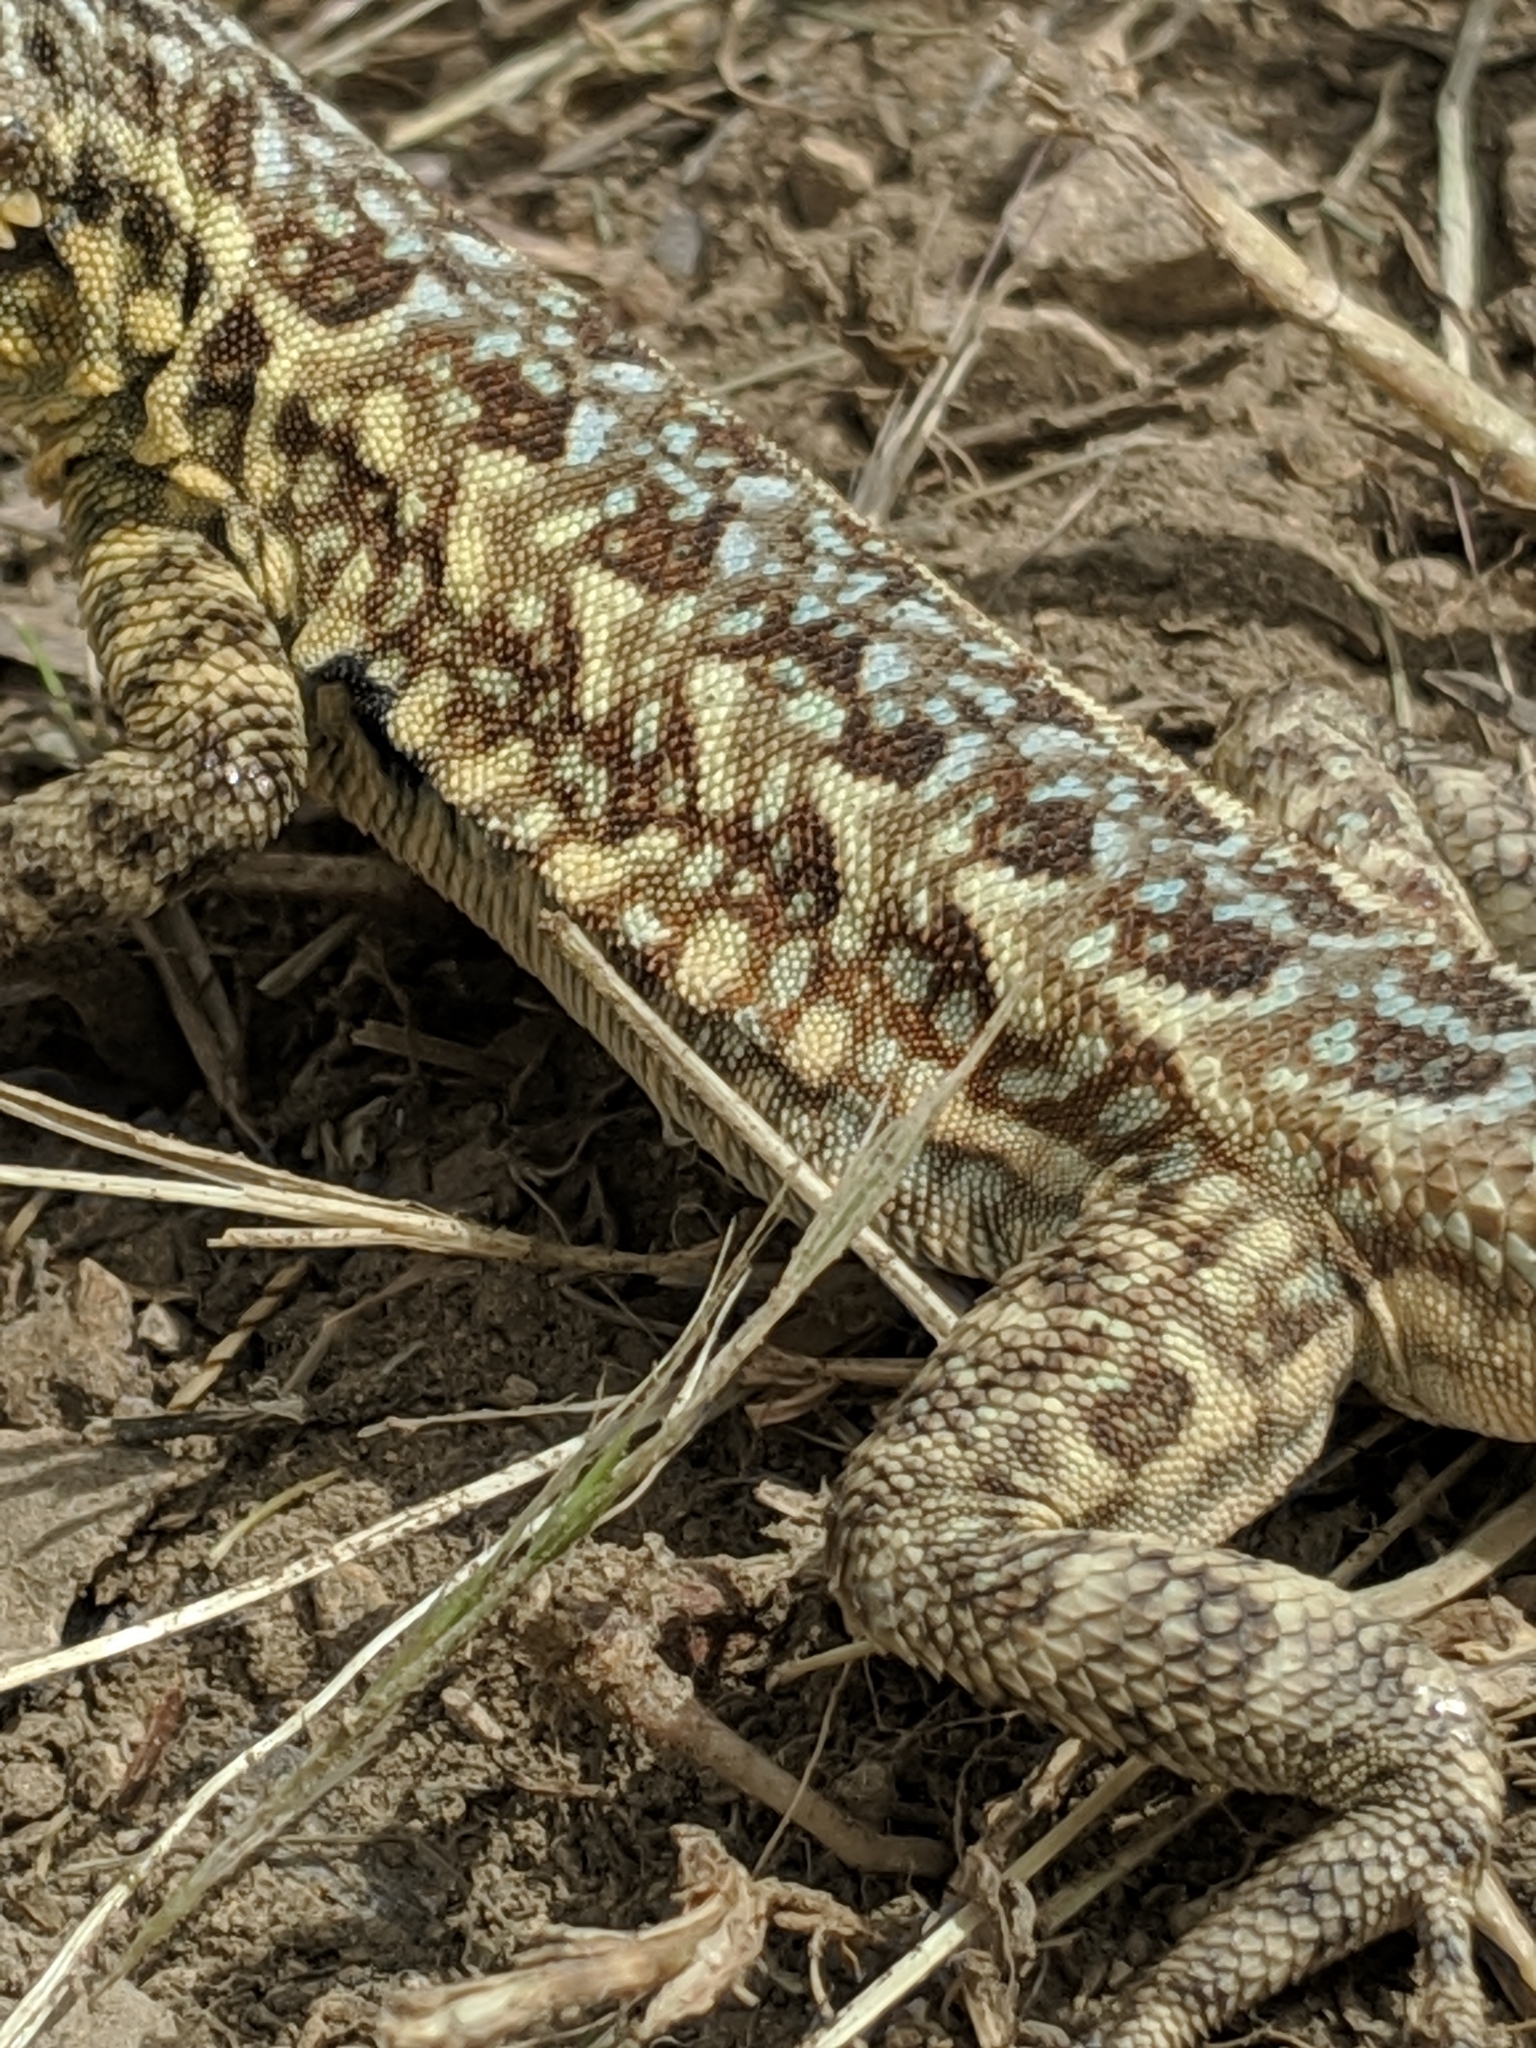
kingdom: Animalia
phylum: Chordata
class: Squamata
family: Phrynosomatidae
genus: Uta
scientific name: Uta stansburiana
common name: Side-blotched lizard
